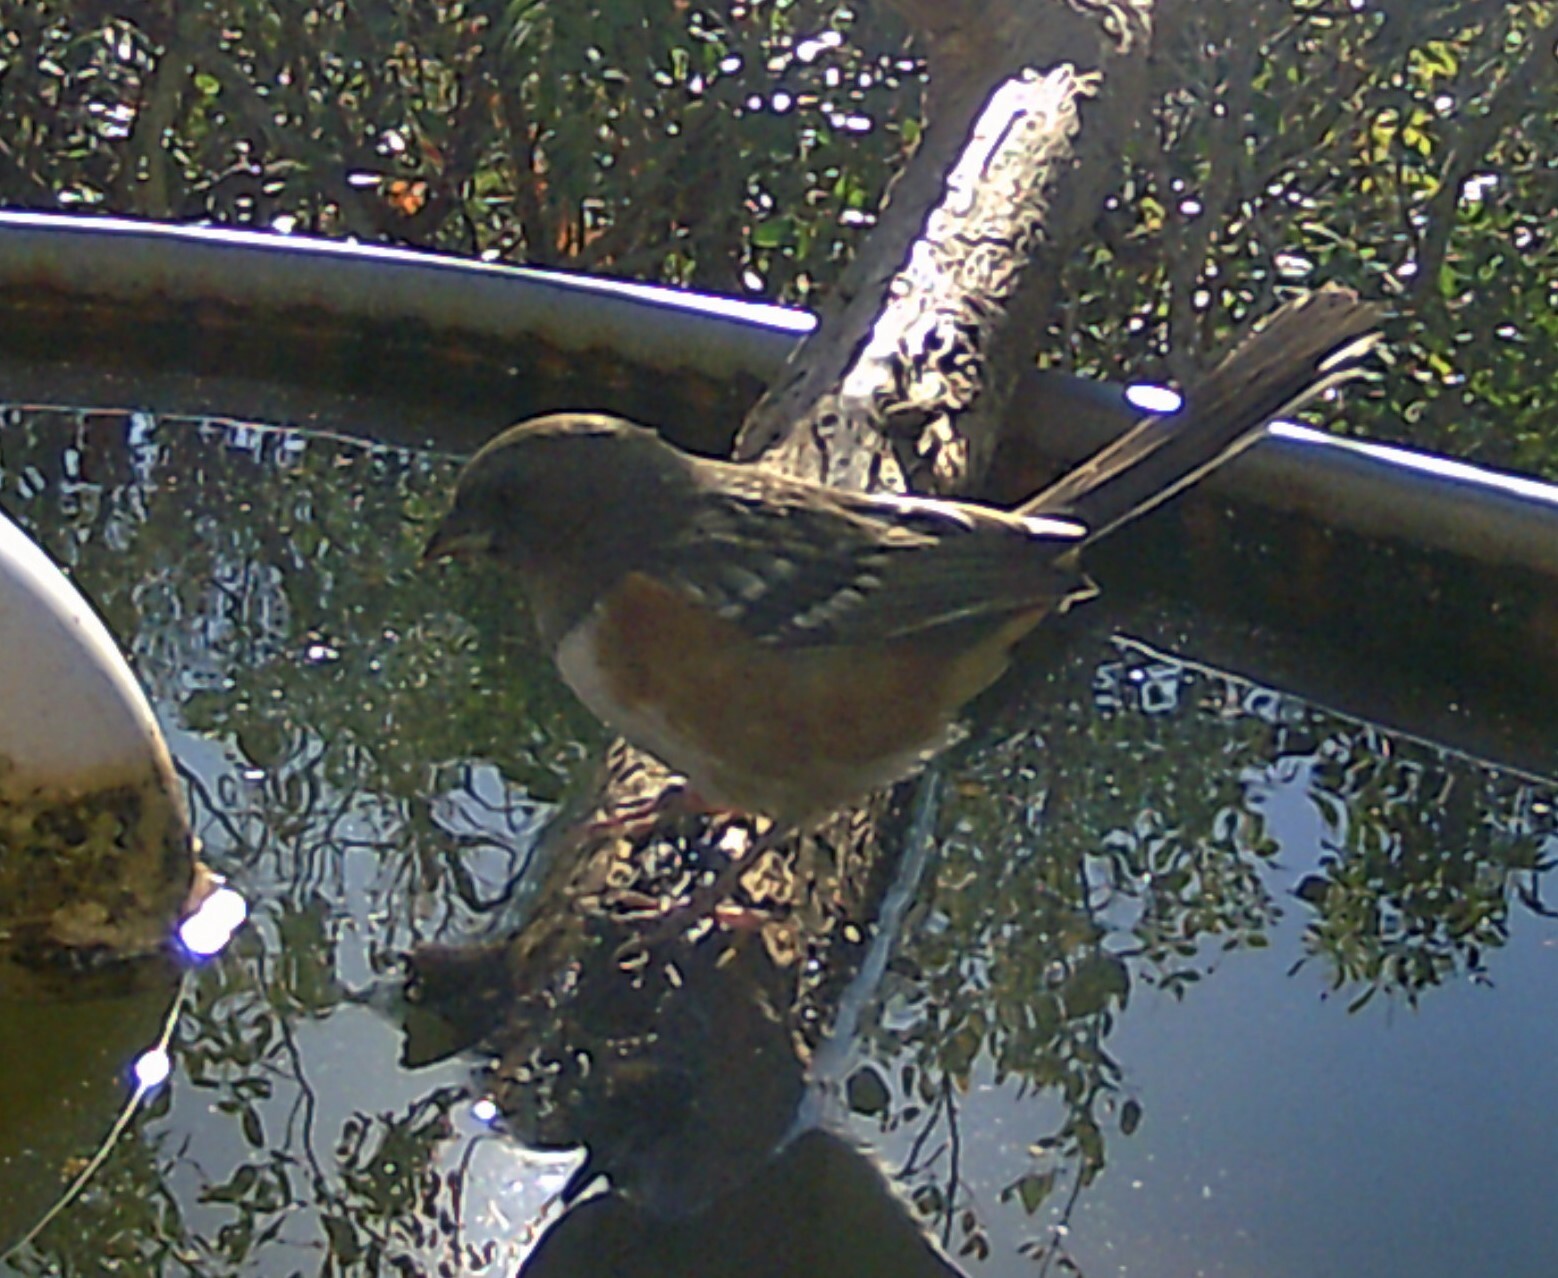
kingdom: Animalia
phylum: Chordata
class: Aves
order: Passeriformes
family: Passerellidae
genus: Pipilo
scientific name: Pipilo maculatus
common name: Spotted towhee
